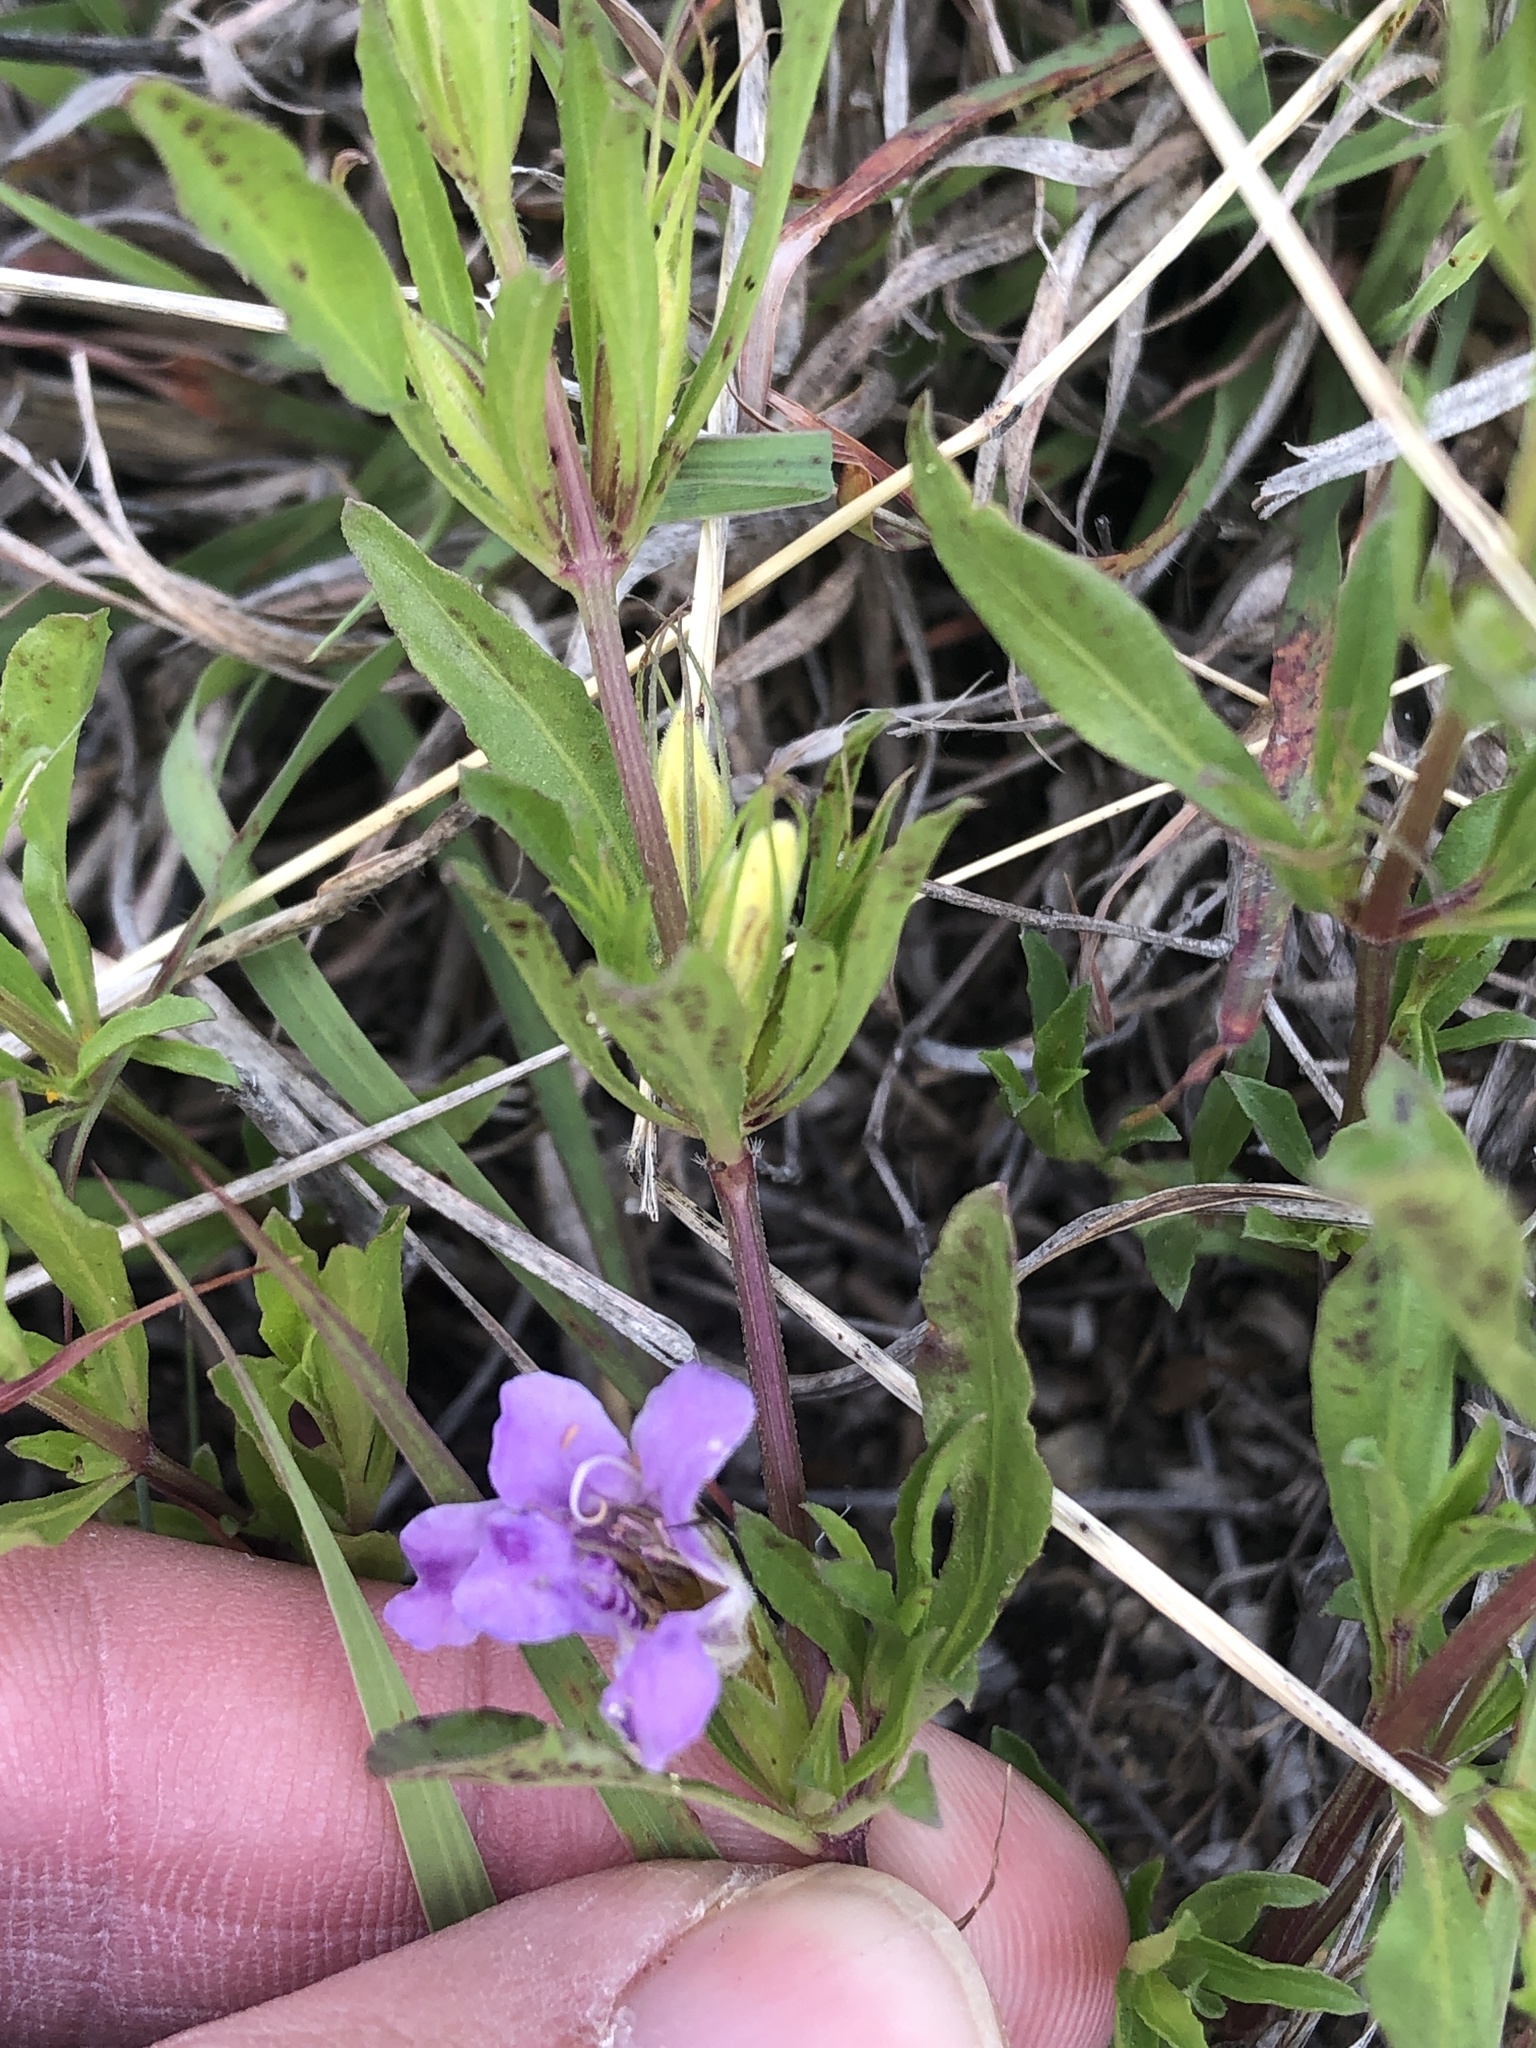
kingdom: Plantae
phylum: Tracheophyta
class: Magnoliopsida
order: Lamiales
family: Acanthaceae
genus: Dyschoriste
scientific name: Dyschoriste linearis
